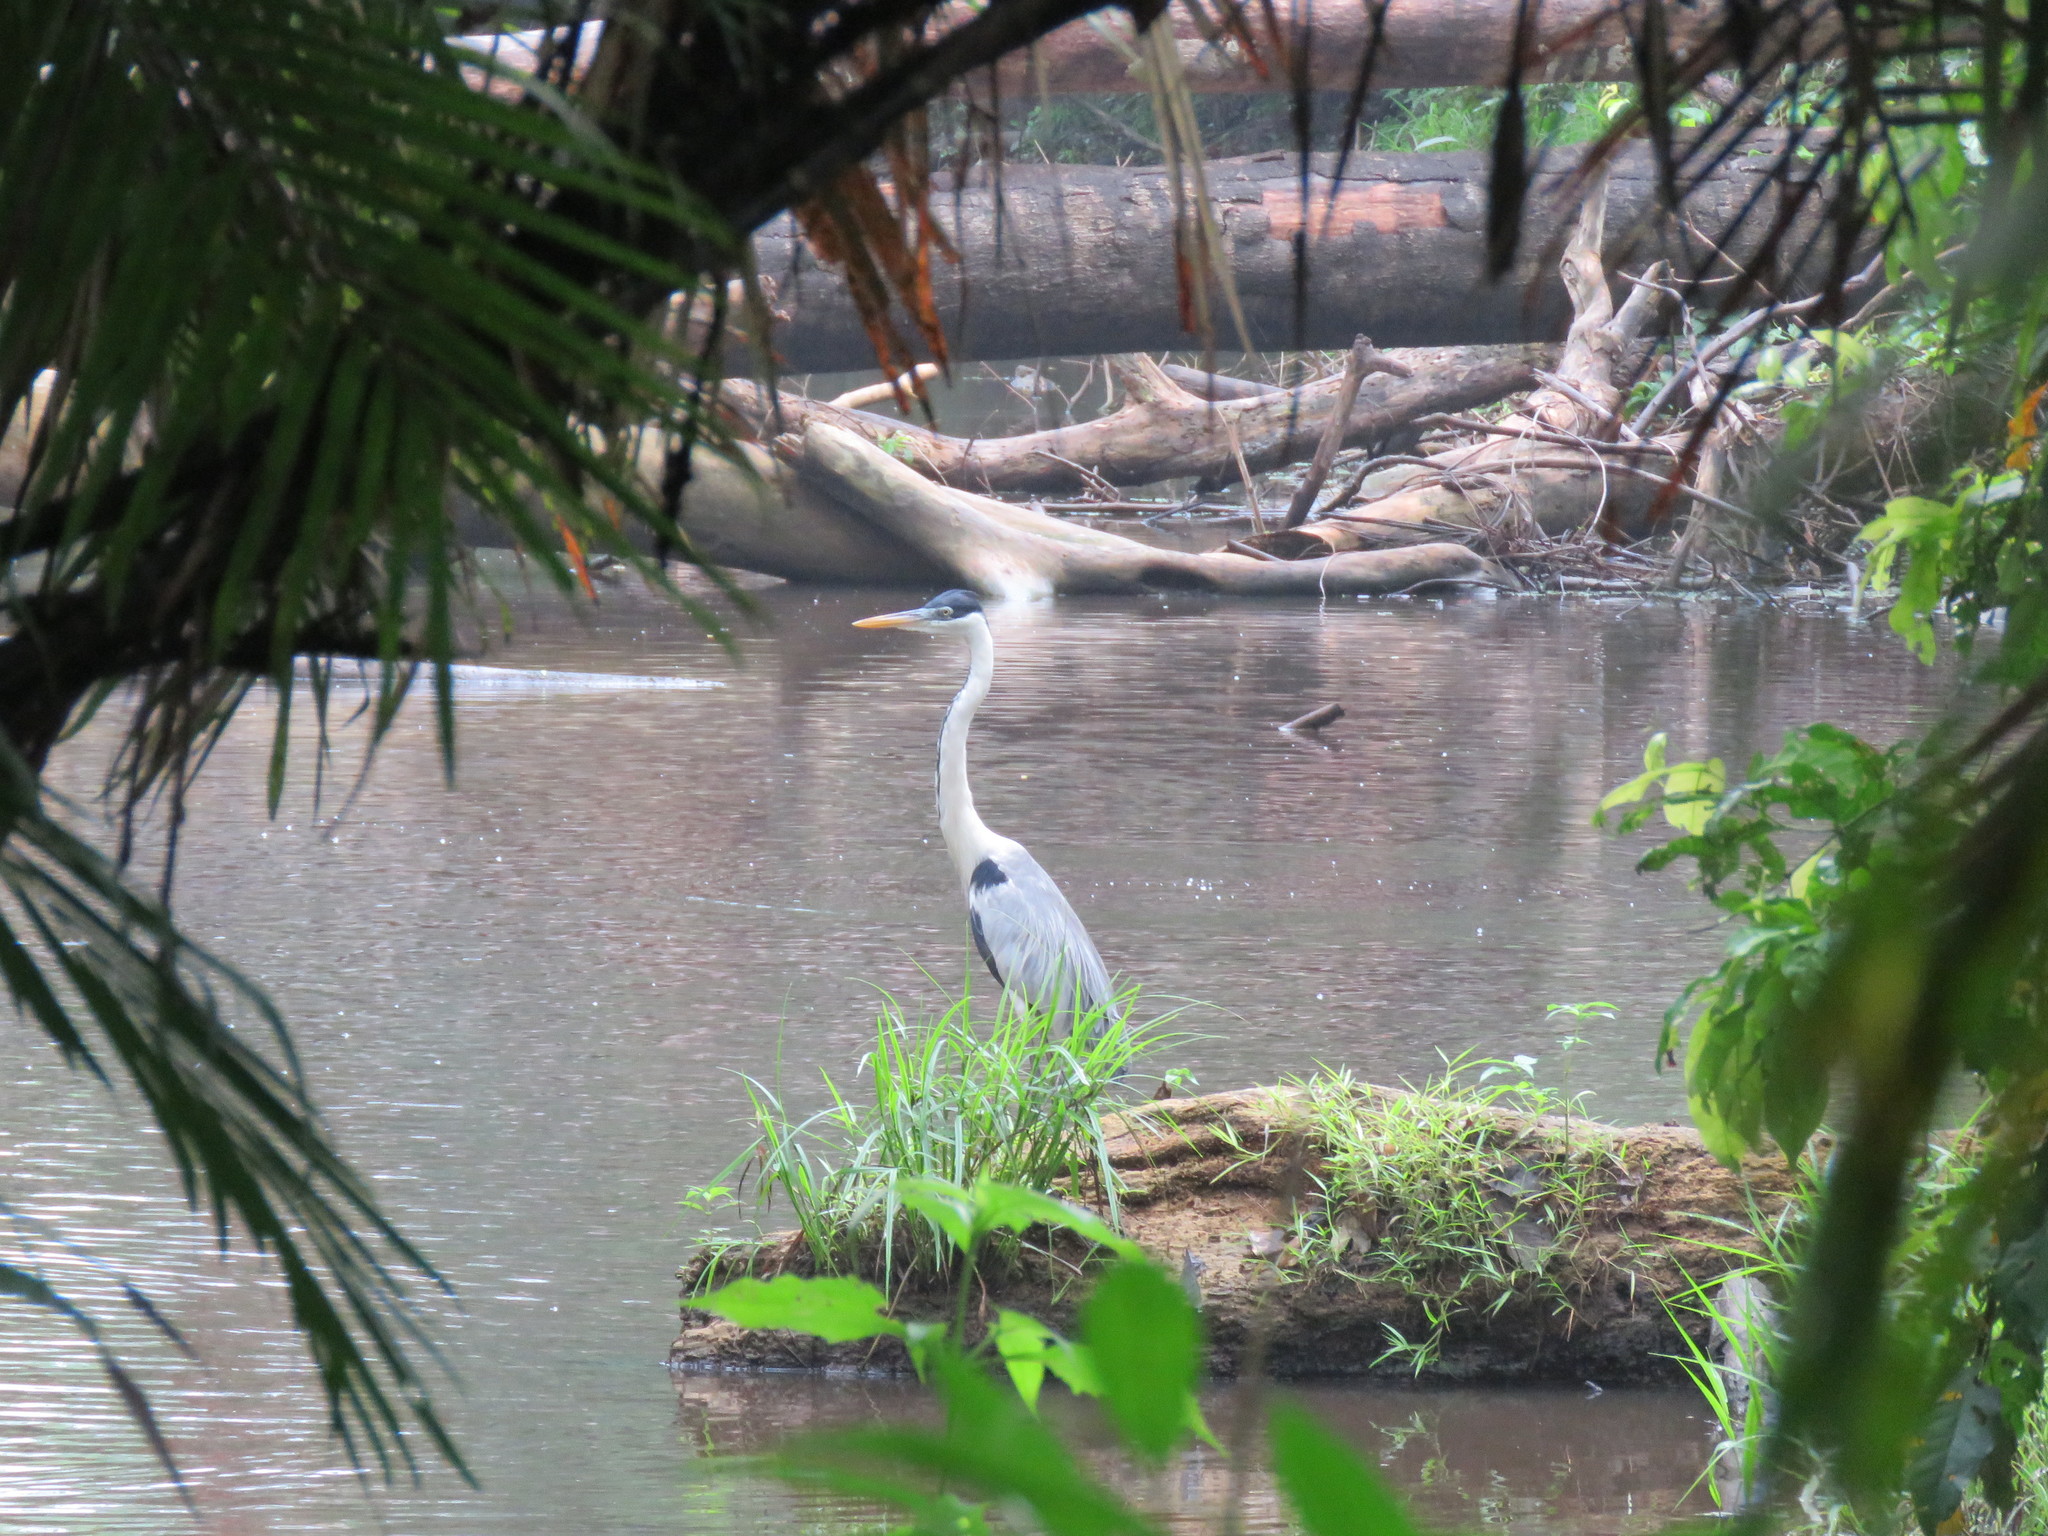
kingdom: Animalia
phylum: Chordata
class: Aves
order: Pelecaniformes
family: Ardeidae
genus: Ardea
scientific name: Ardea cocoi
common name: Cocoi heron
